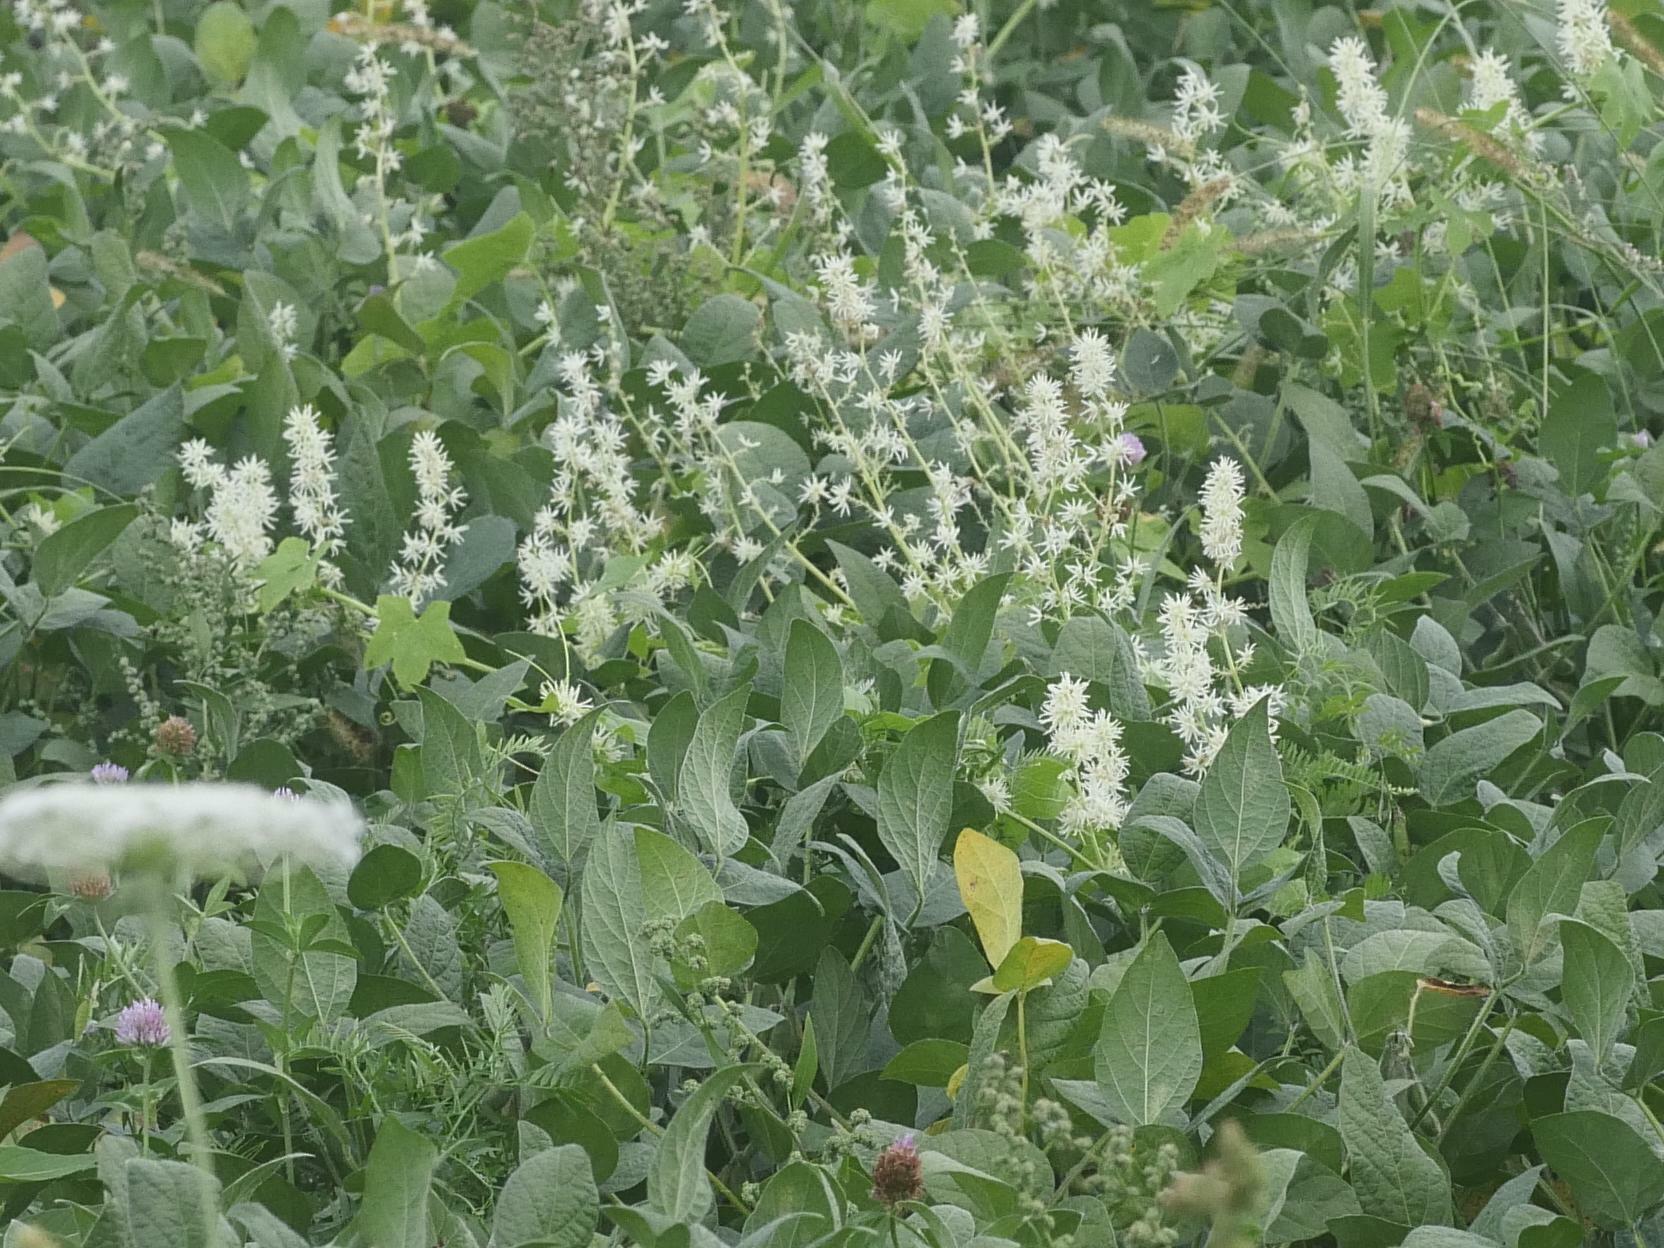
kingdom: Plantae
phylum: Tracheophyta
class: Magnoliopsida
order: Cucurbitales
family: Cucurbitaceae
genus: Echinocystis
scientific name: Echinocystis lobata
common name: Wild cucumber
